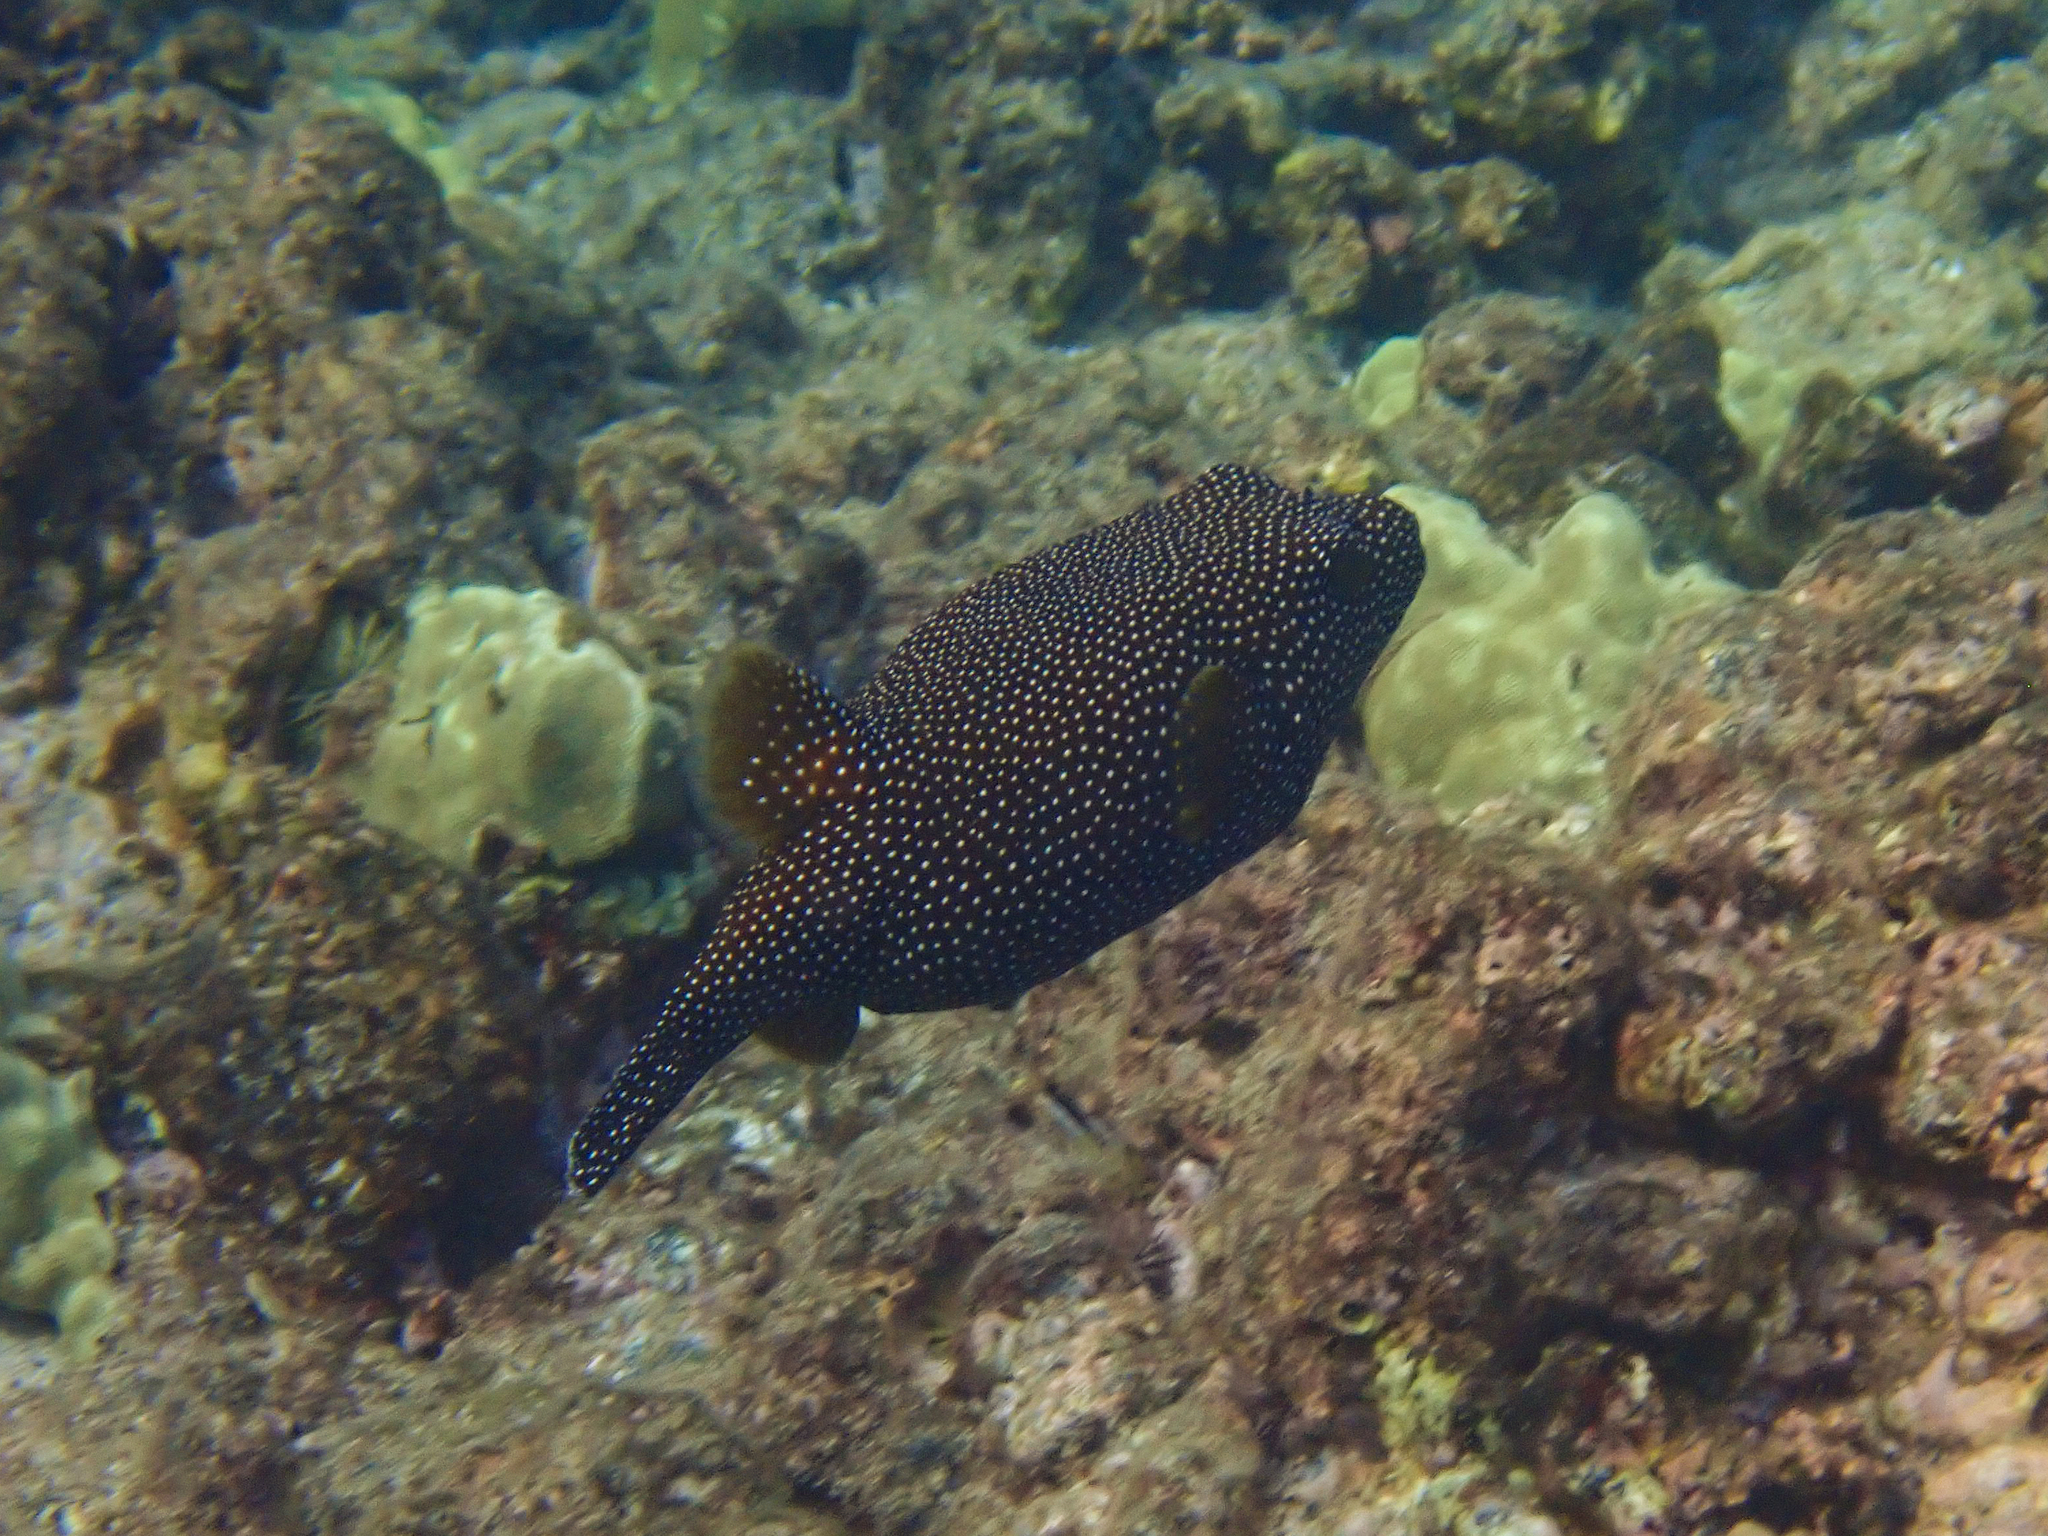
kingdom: Animalia
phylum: Chordata
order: Tetraodontiformes
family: Tetraodontidae
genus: Arothron
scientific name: Arothron meleagris
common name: Guinea-fowl pufferfish
